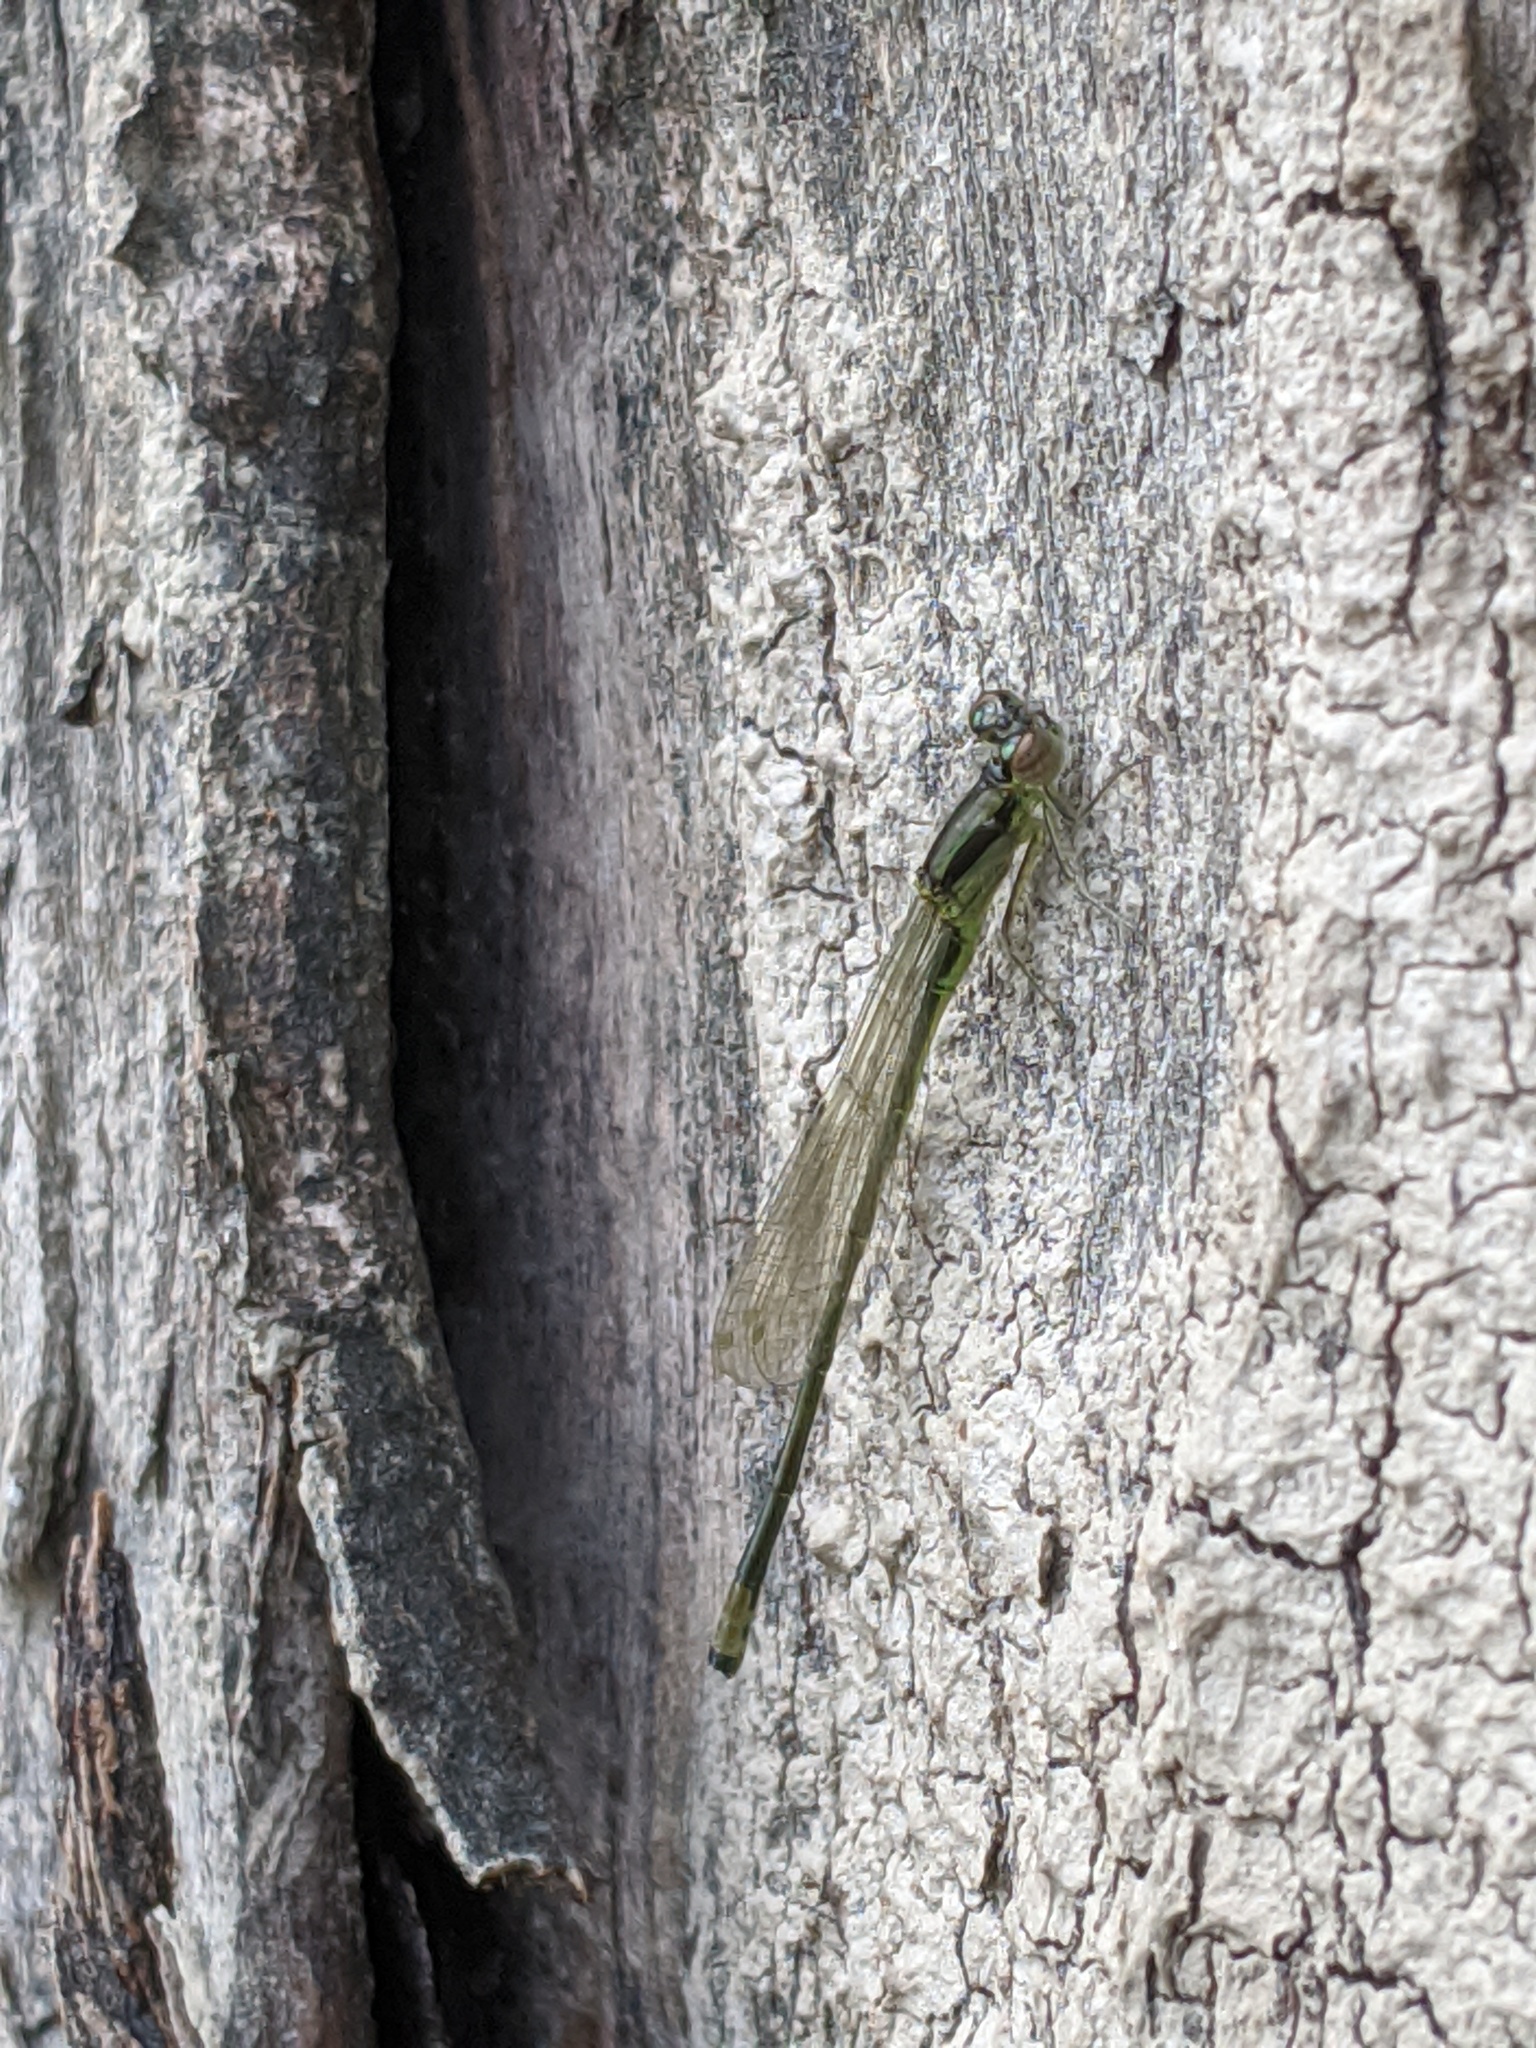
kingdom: Animalia
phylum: Arthropoda
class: Insecta
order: Odonata
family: Coenagrionidae
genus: Ischnura
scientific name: Ischnura verticalis
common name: Eastern forktail
